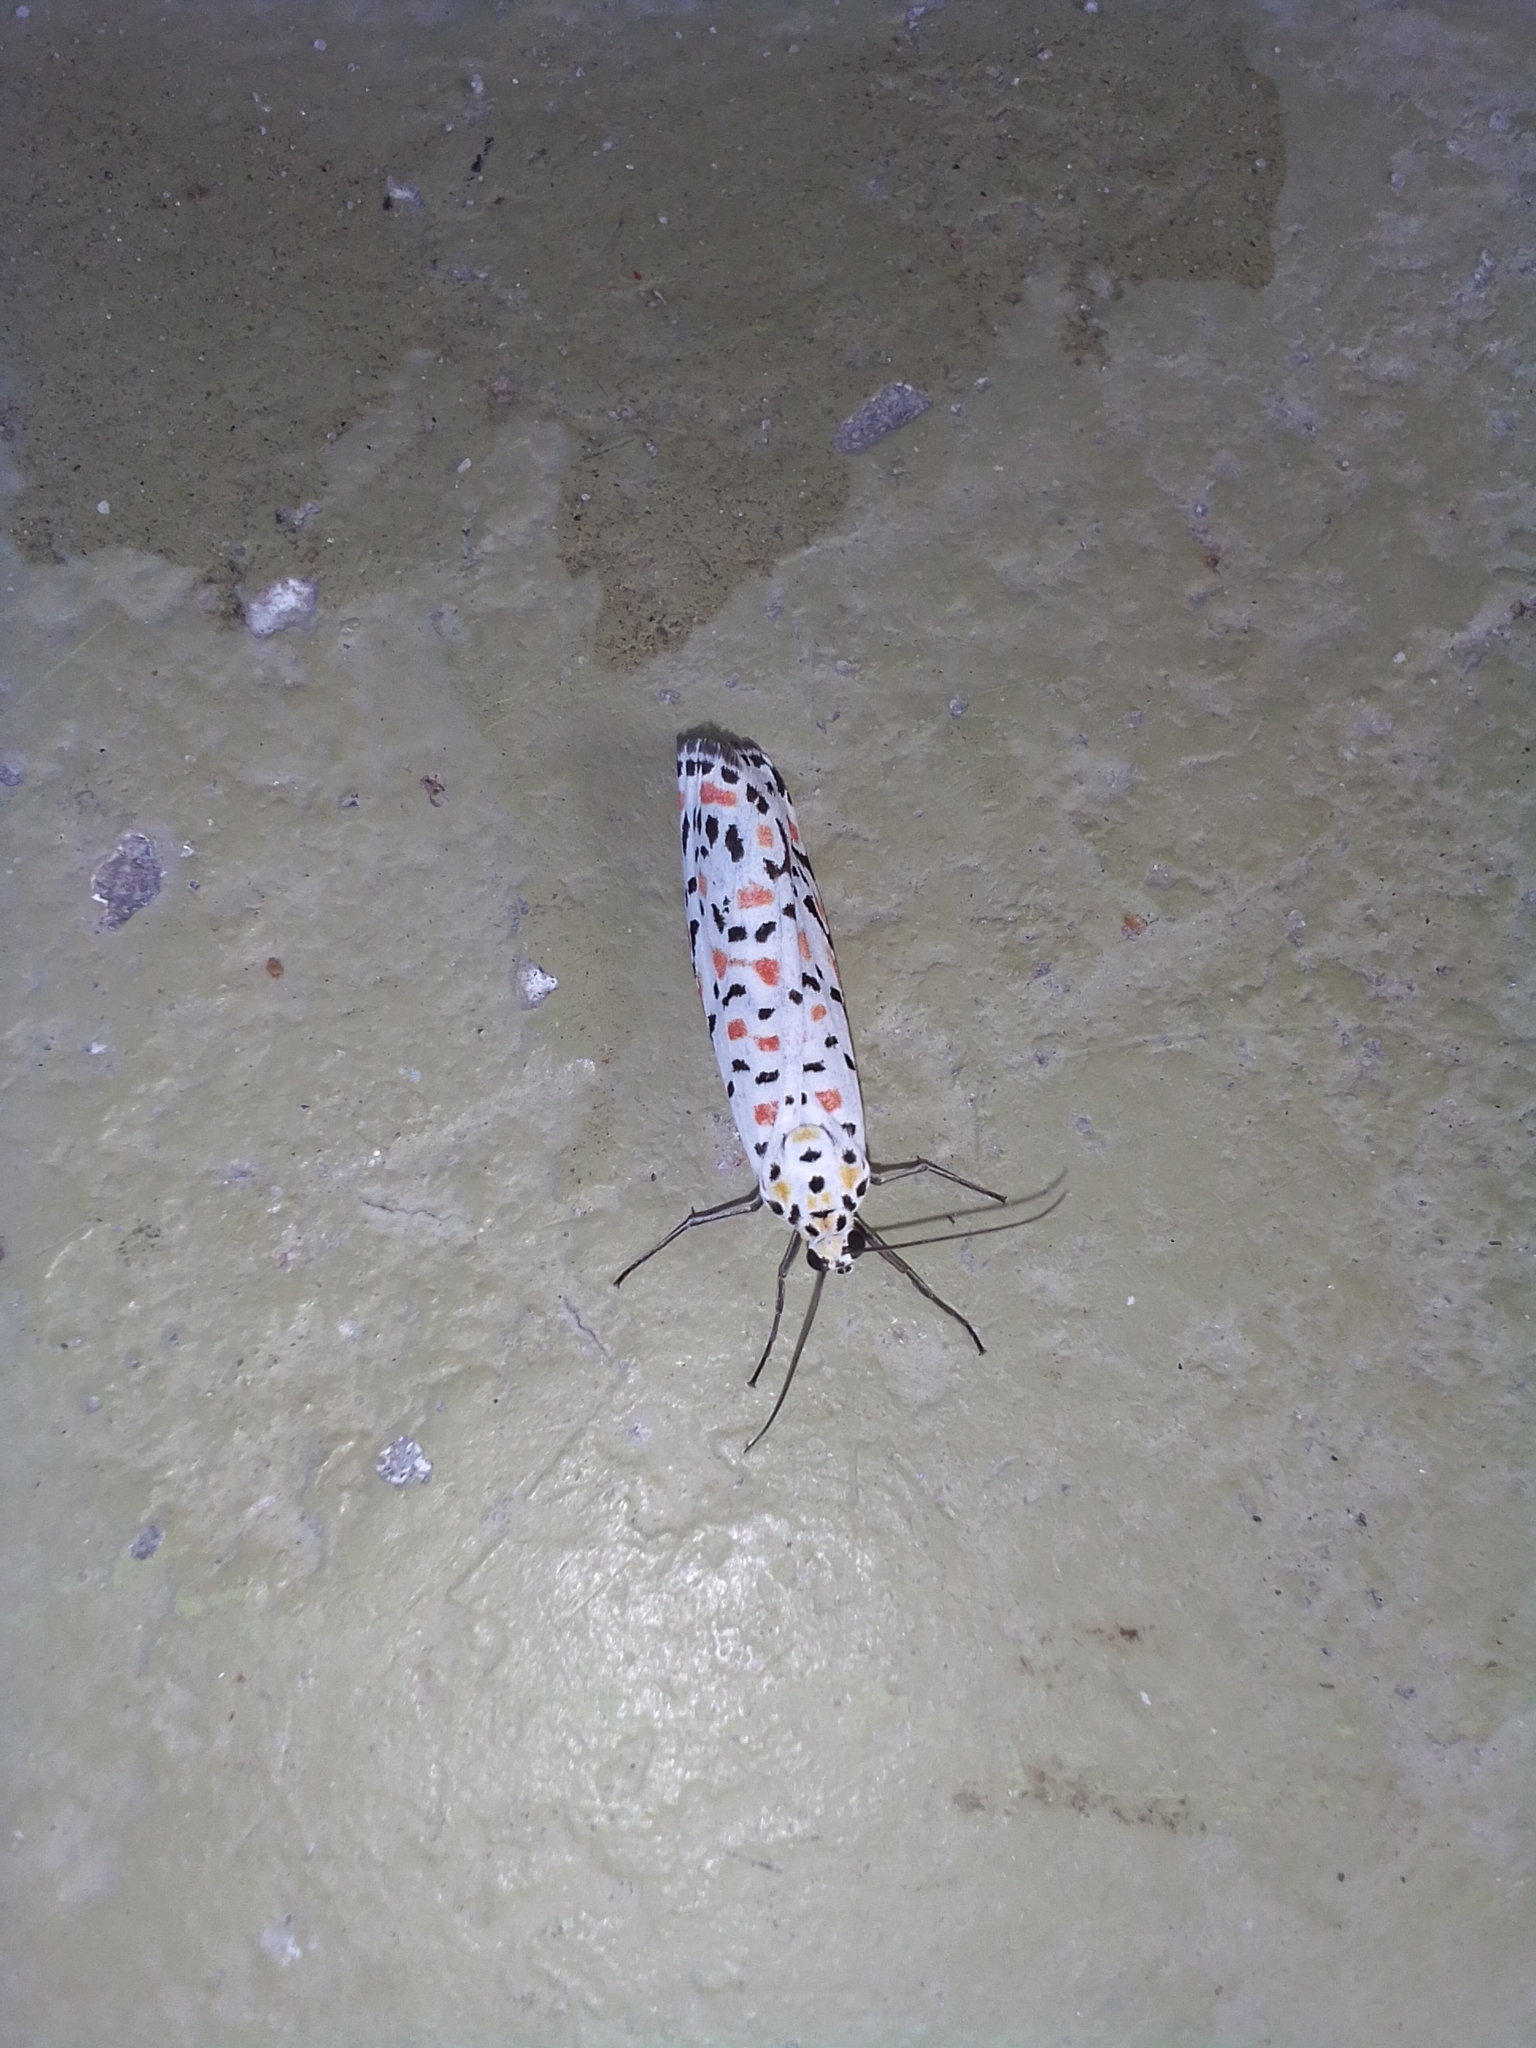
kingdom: Animalia
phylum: Arthropoda
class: Insecta
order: Lepidoptera
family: Erebidae
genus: Utetheisa
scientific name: Utetheisa pulchella
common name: Crimson speckled
